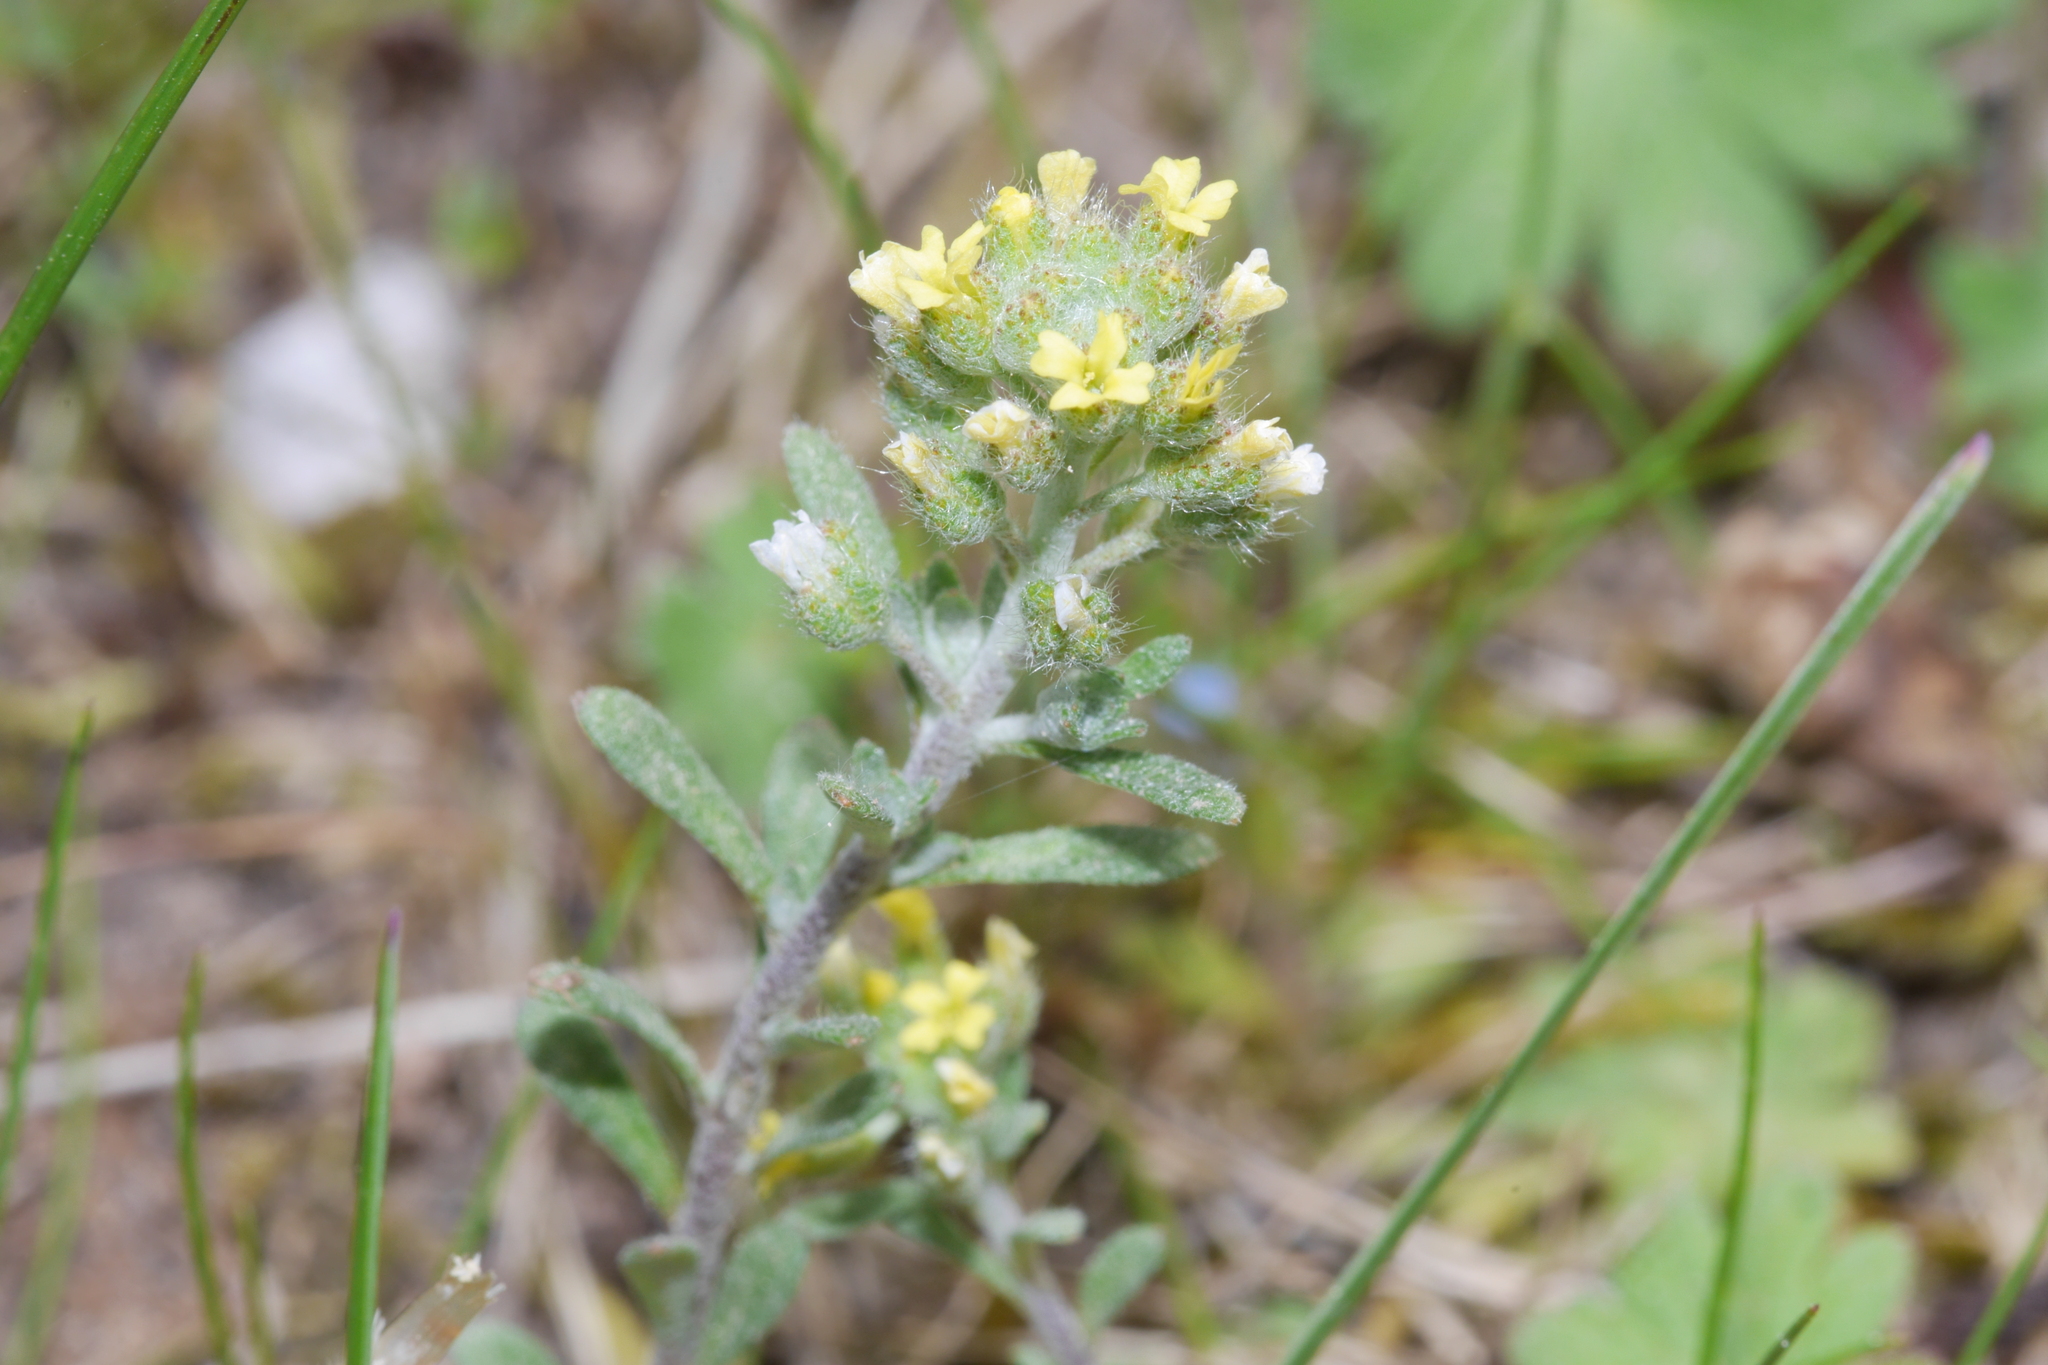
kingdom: Plantae
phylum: Tracheophyta
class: Magnoliopsida
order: Brassicales
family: Brassicaceae
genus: Alyssum
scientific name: Alyssum alyssoides
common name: Small alison
